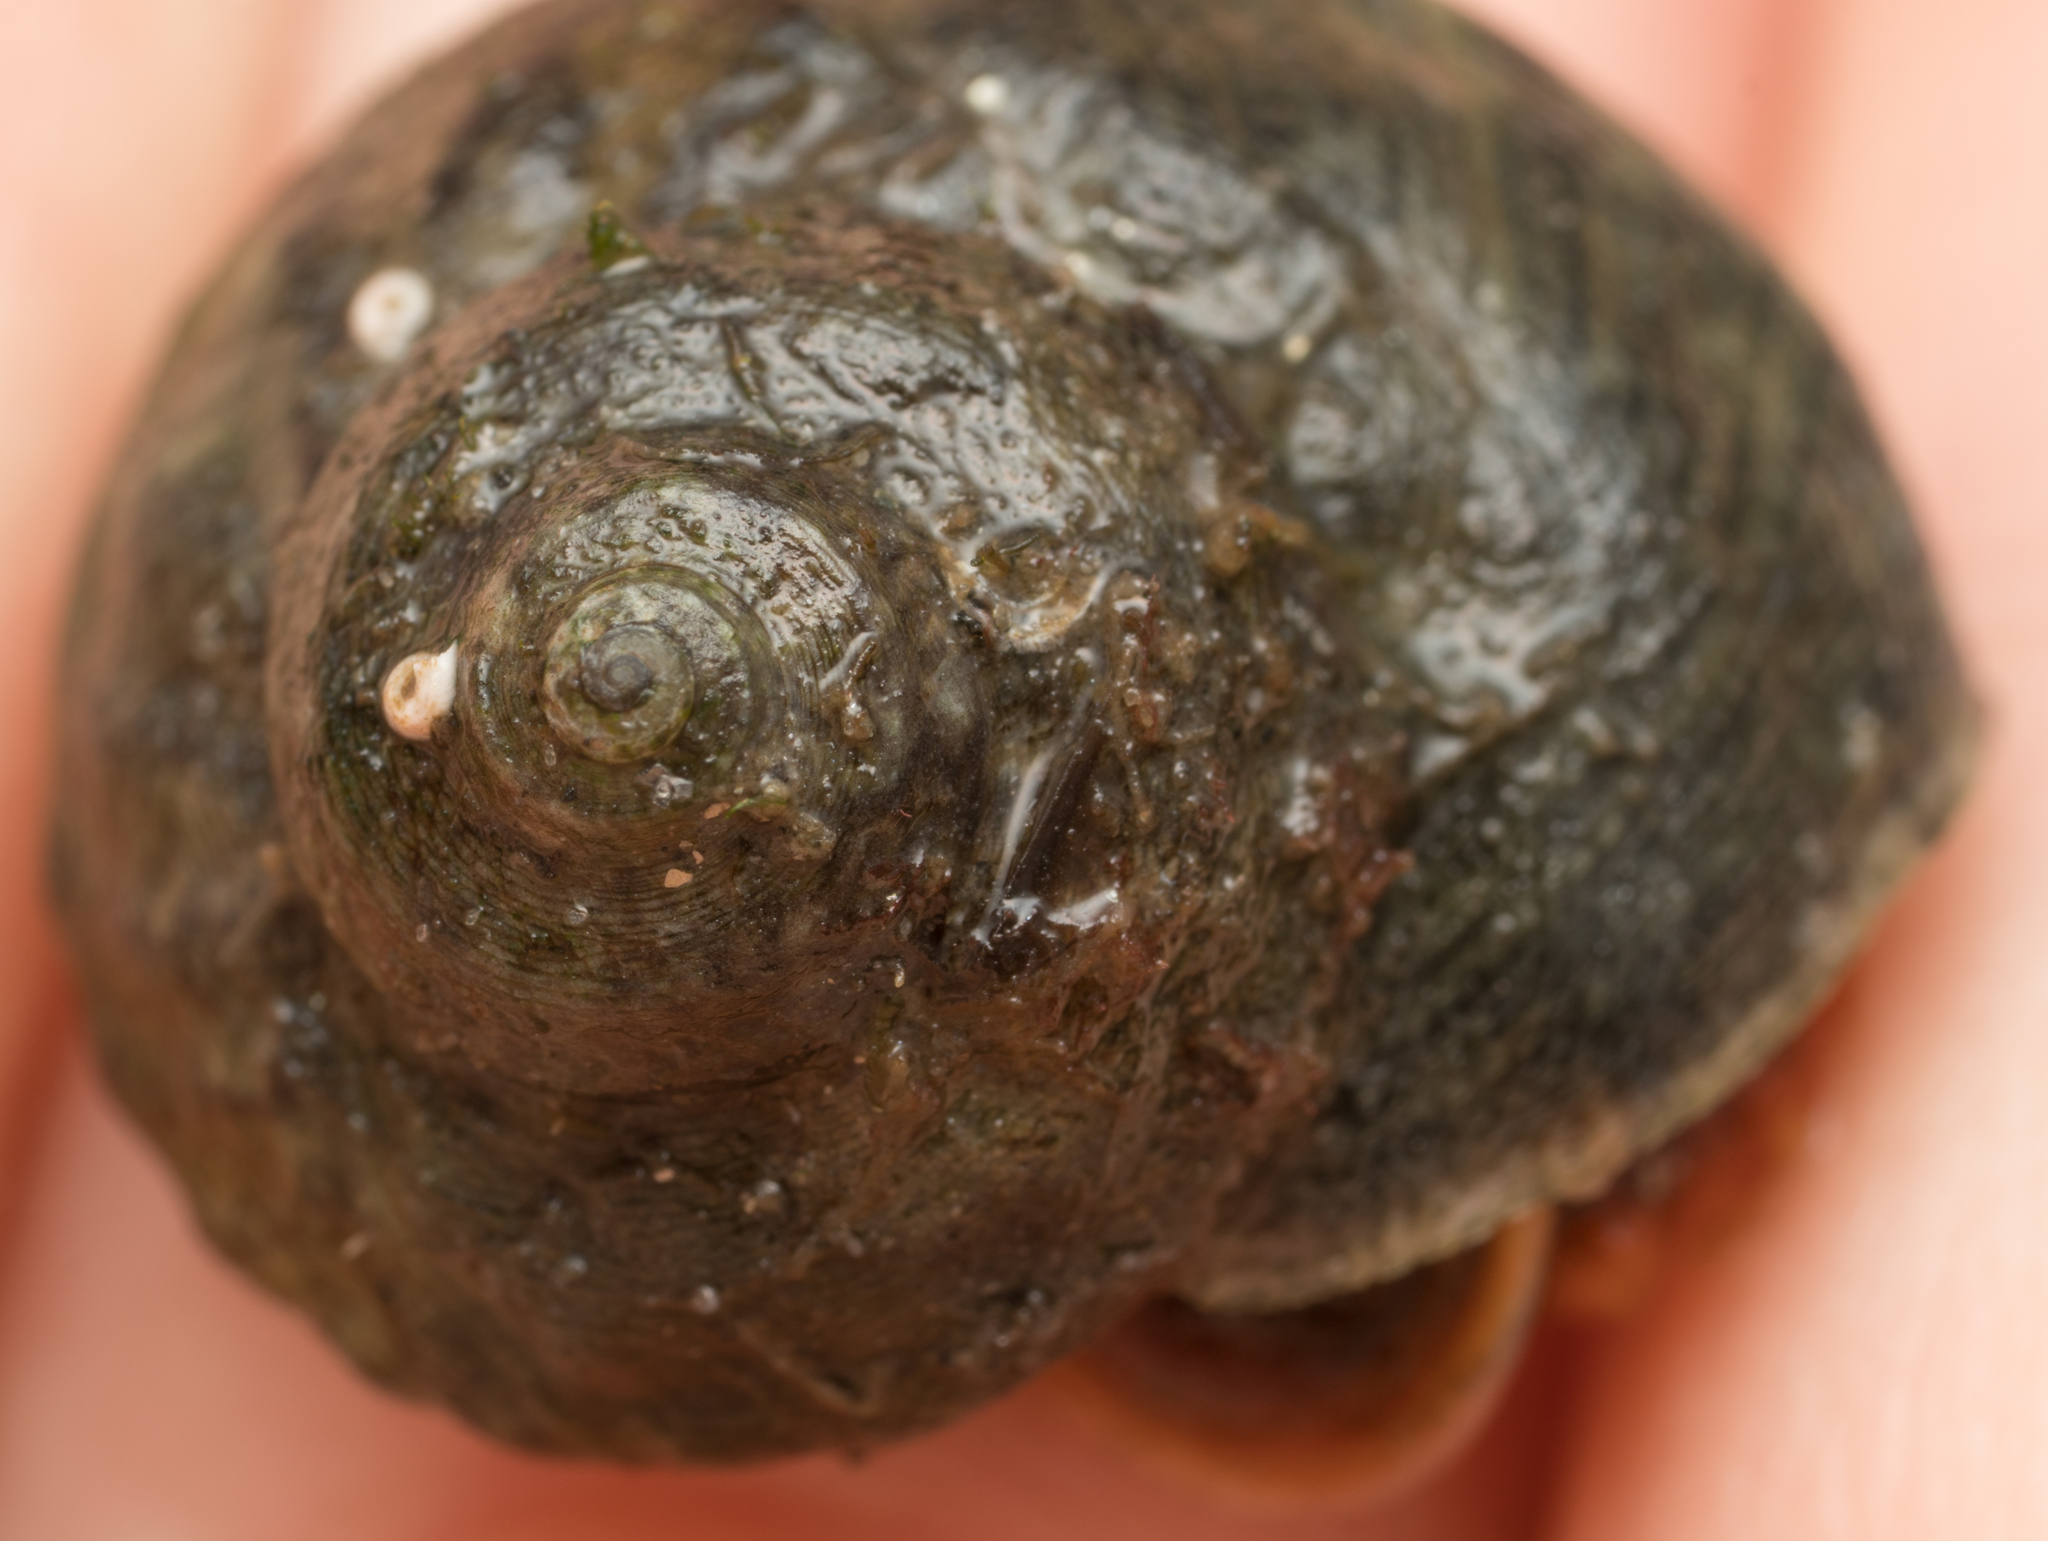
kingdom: Animalia
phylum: Mollusca
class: Gastropoda
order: Trochida
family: Tegulidae
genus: Tegula
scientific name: Tegula aureotincta
